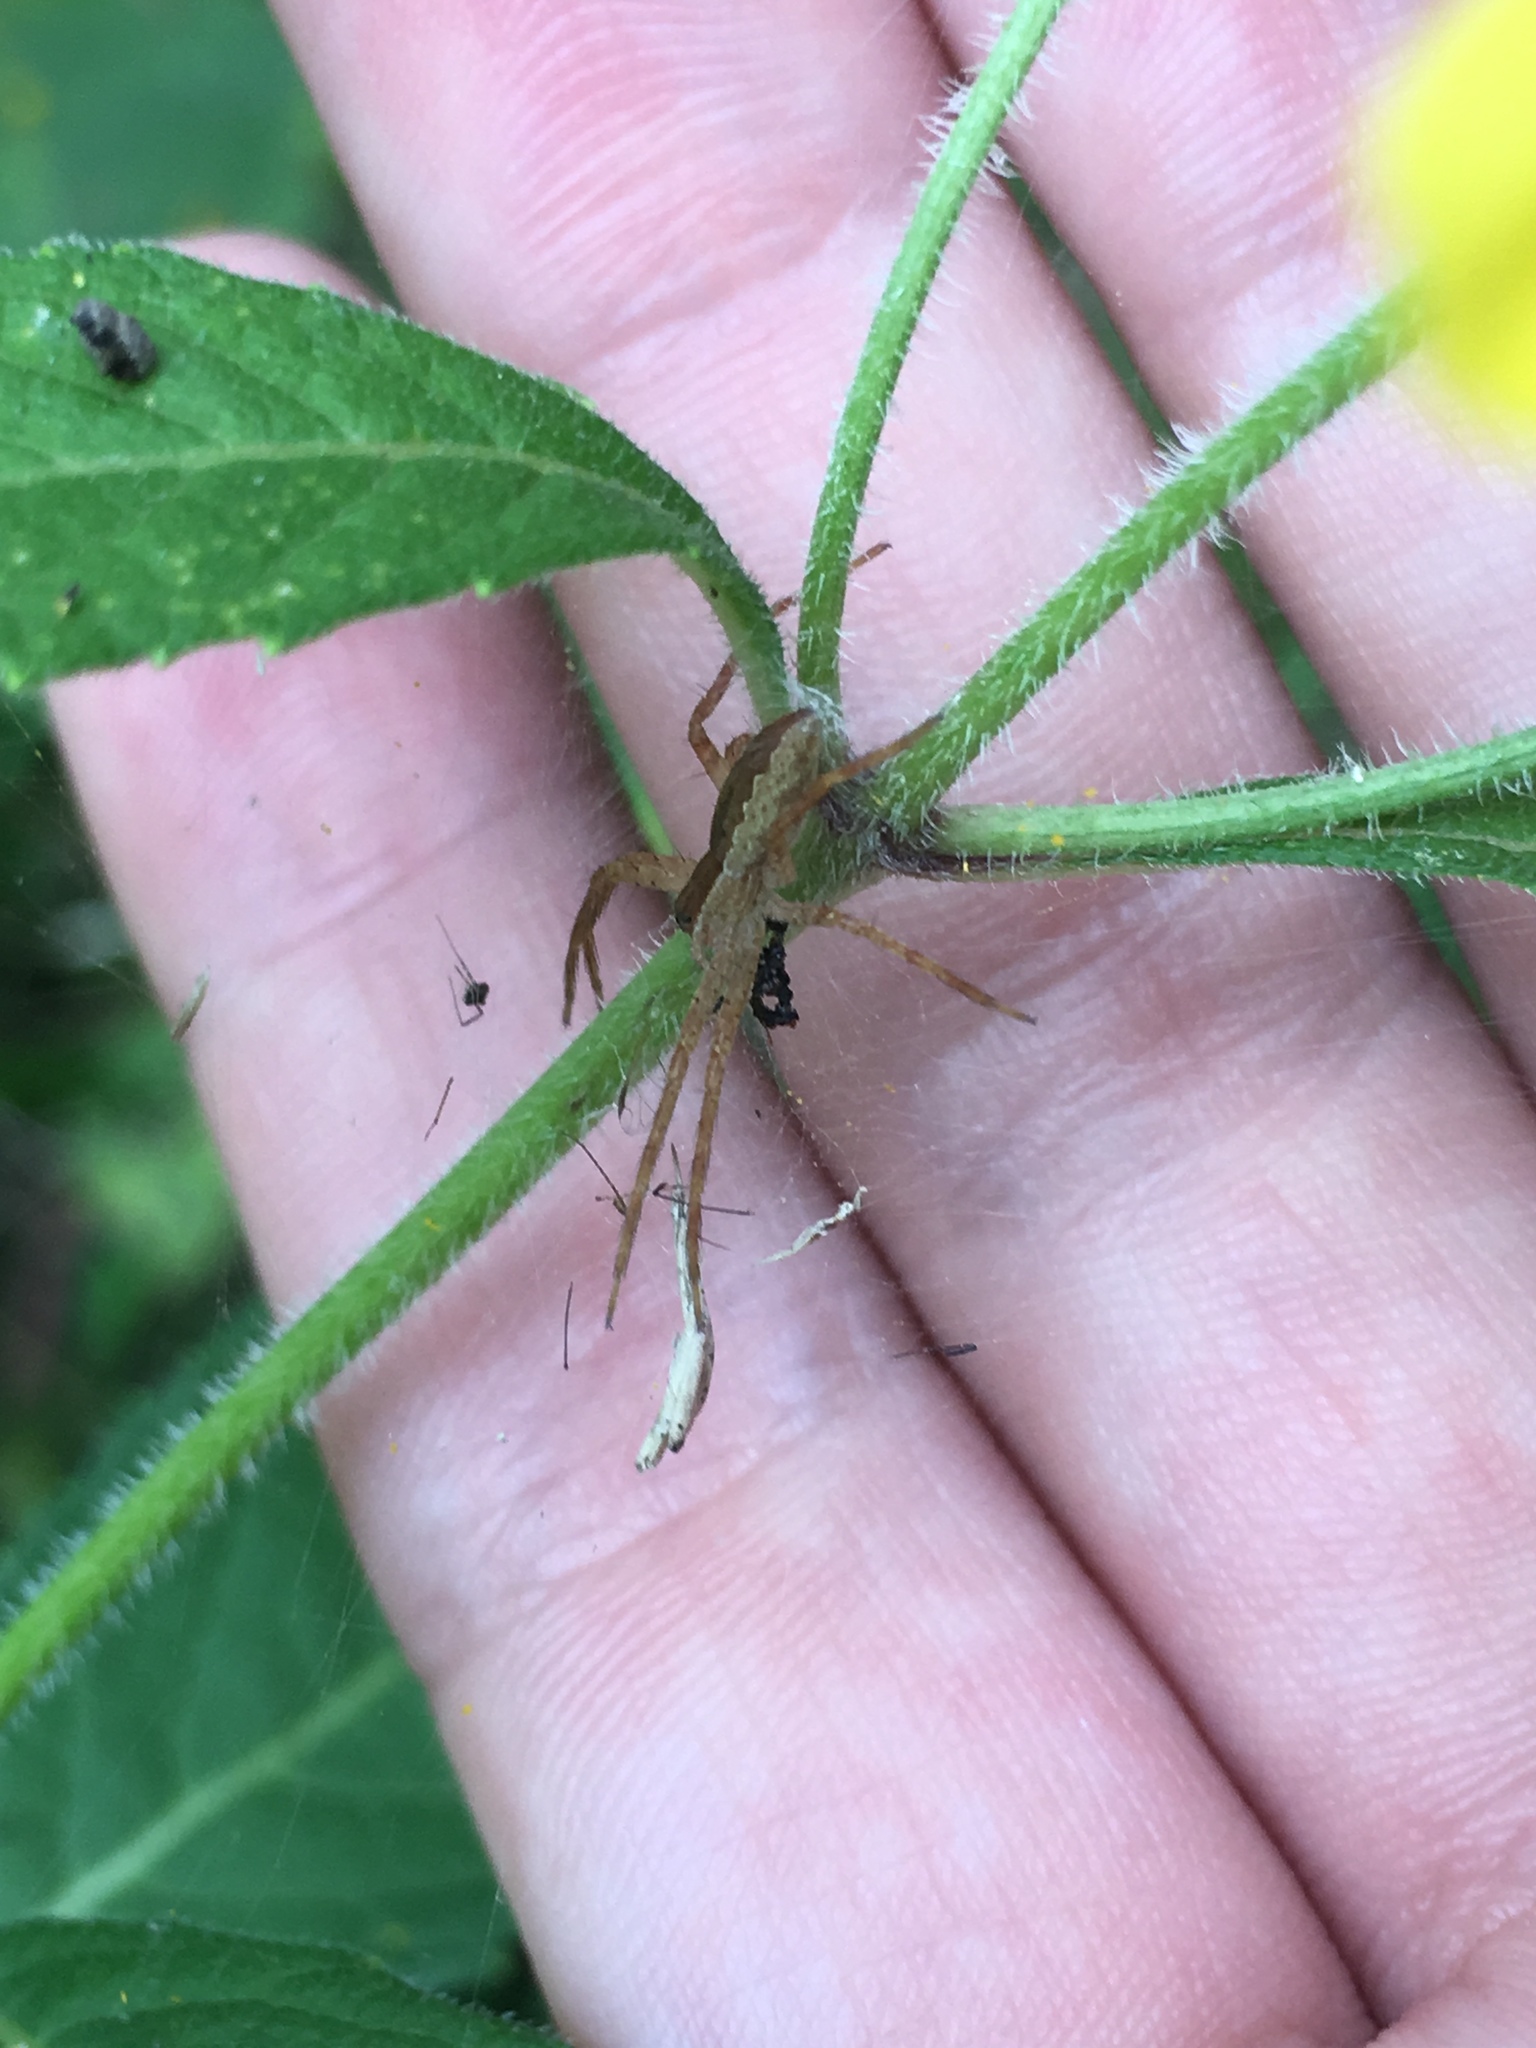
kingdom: Animalia
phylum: Arthropoda
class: Arachnida
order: Araneae
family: Pisauridae
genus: Pisaurina
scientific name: Pisaurina mira
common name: American nursery web spider
